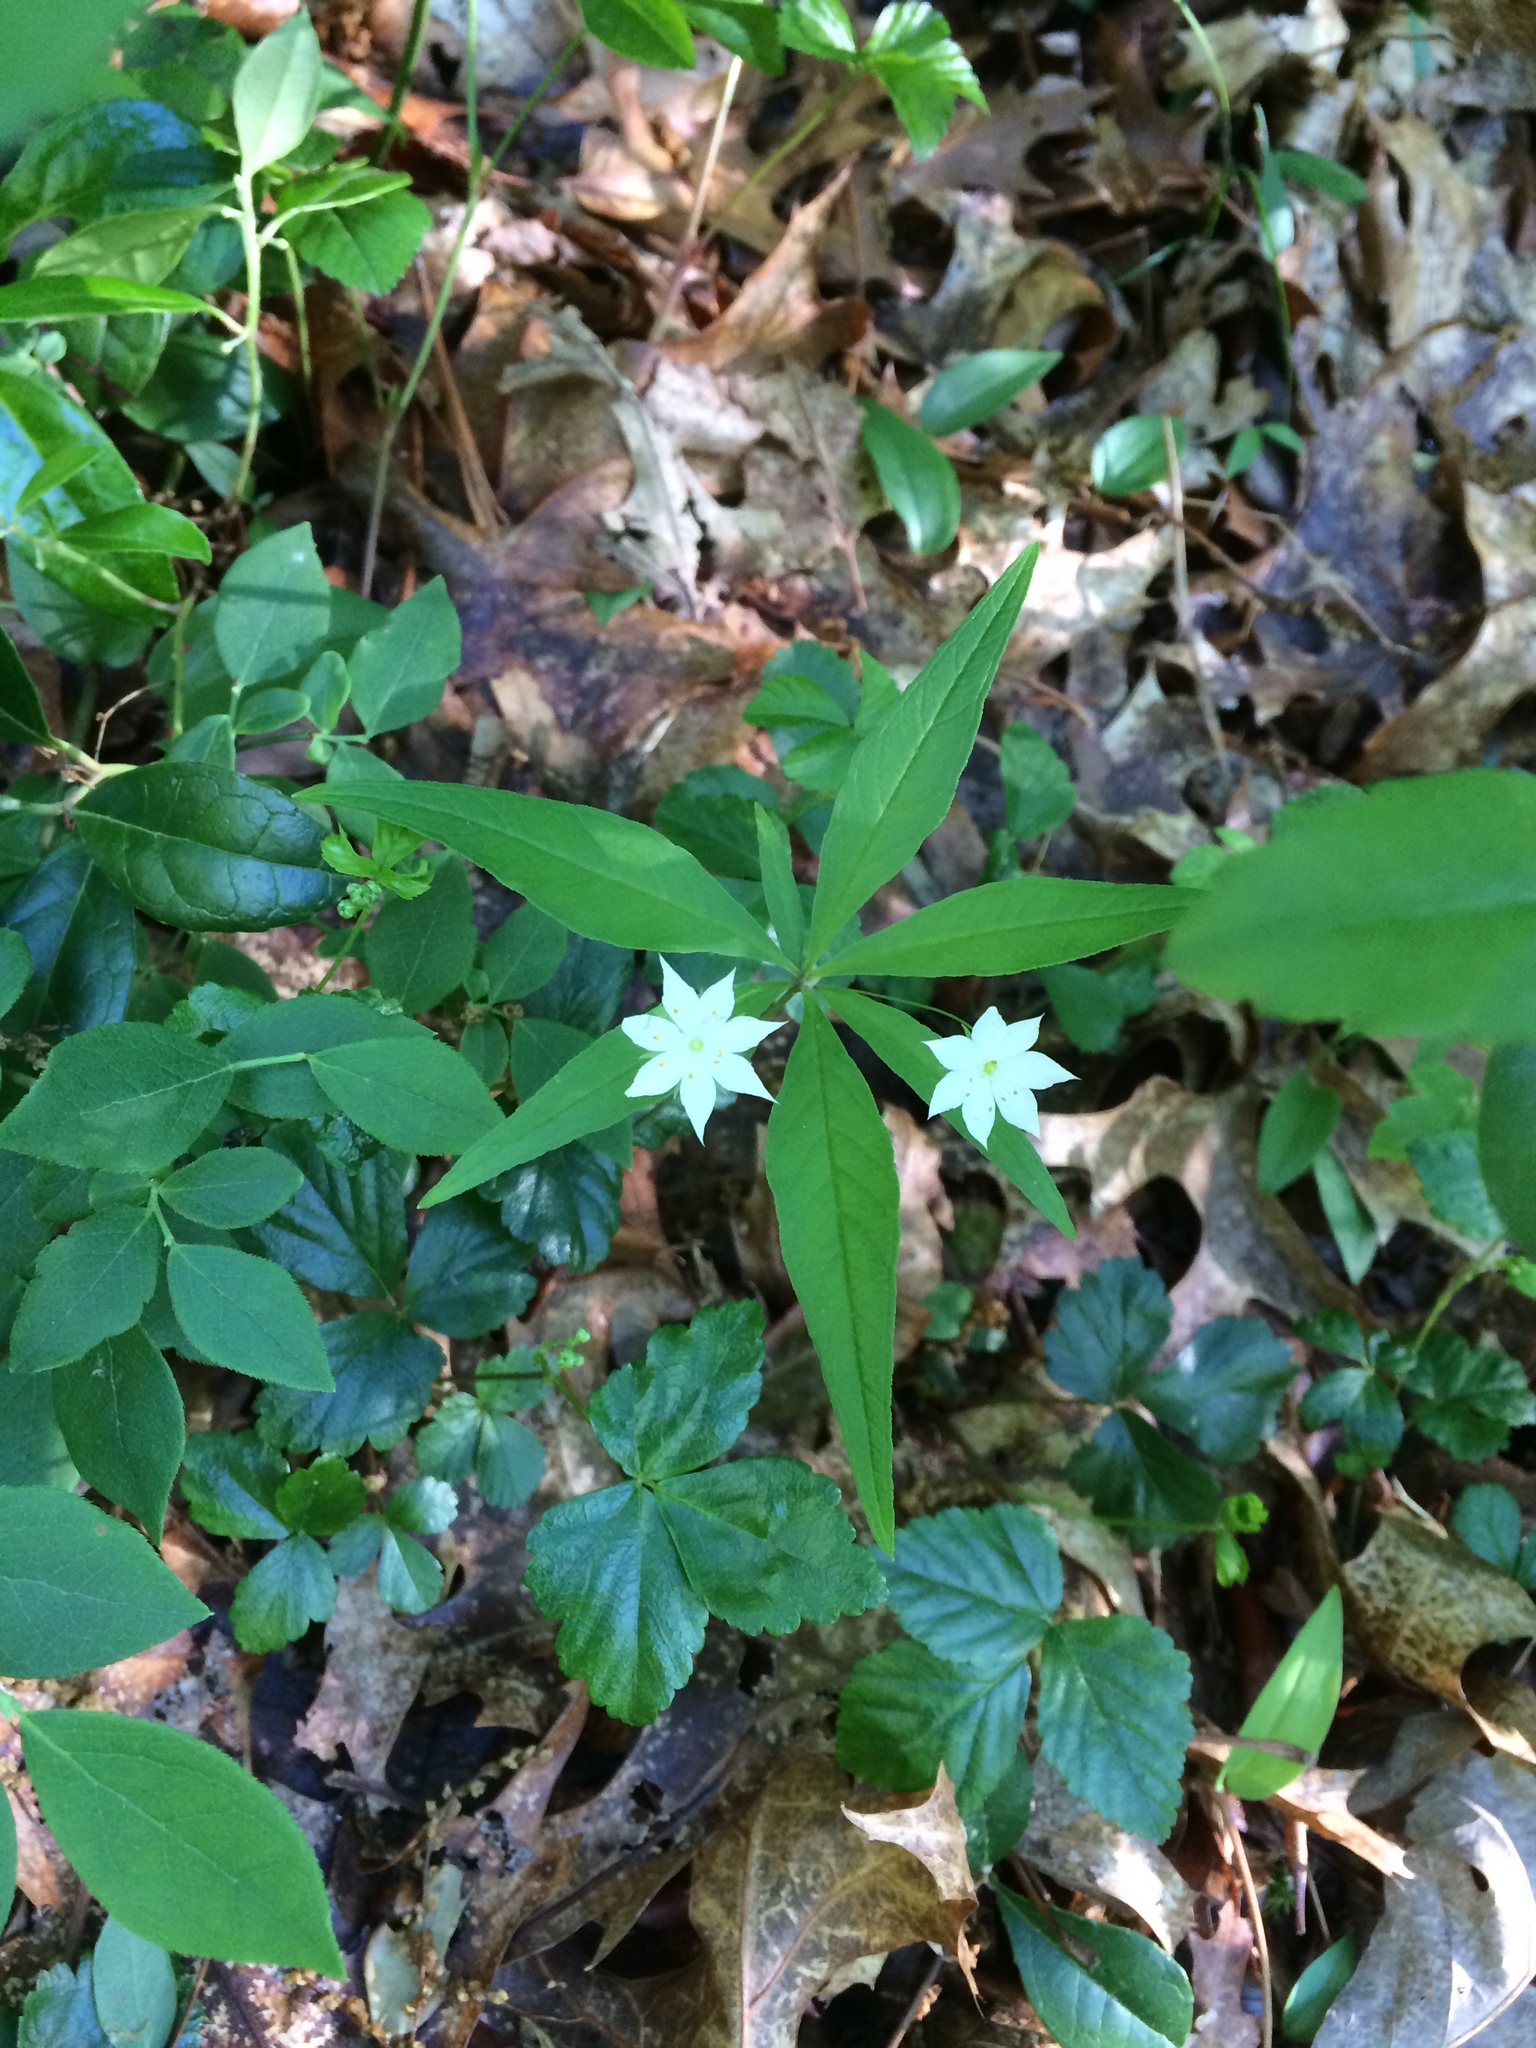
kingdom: Plantae
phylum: Tracheophyta
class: Magnoliopsida
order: Ericales
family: Primulaceae
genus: Lysimachia
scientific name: Lysimachia borealis
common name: American starflower
